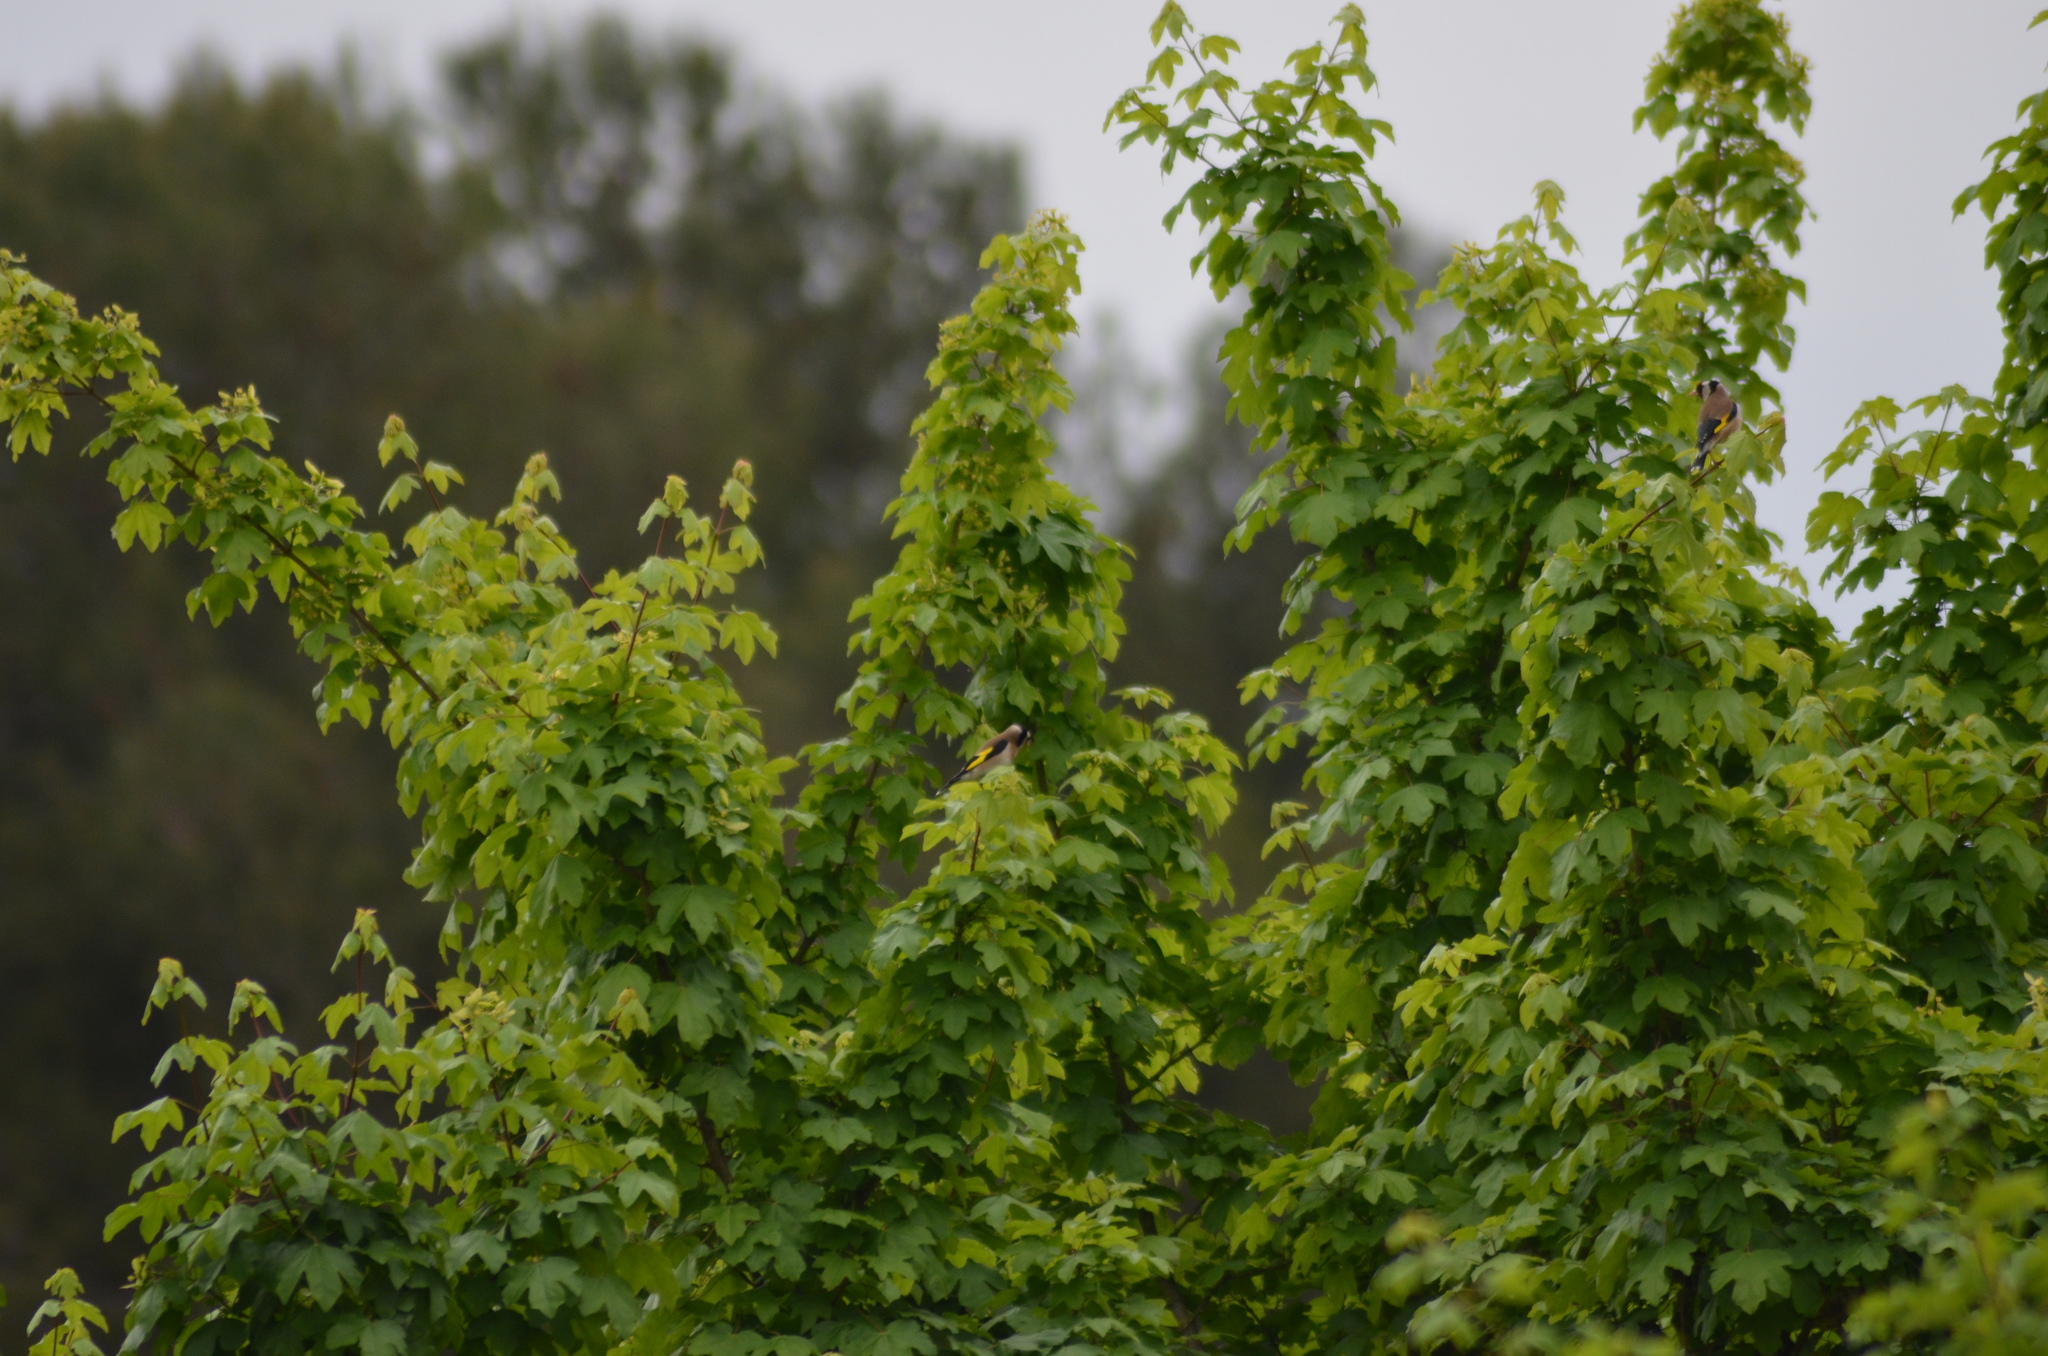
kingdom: Animalia
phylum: Chordata
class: Aves
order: Passeriformes
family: Fringillidae
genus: Carduelis
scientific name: Carduelis carduelis
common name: European goldfinch
